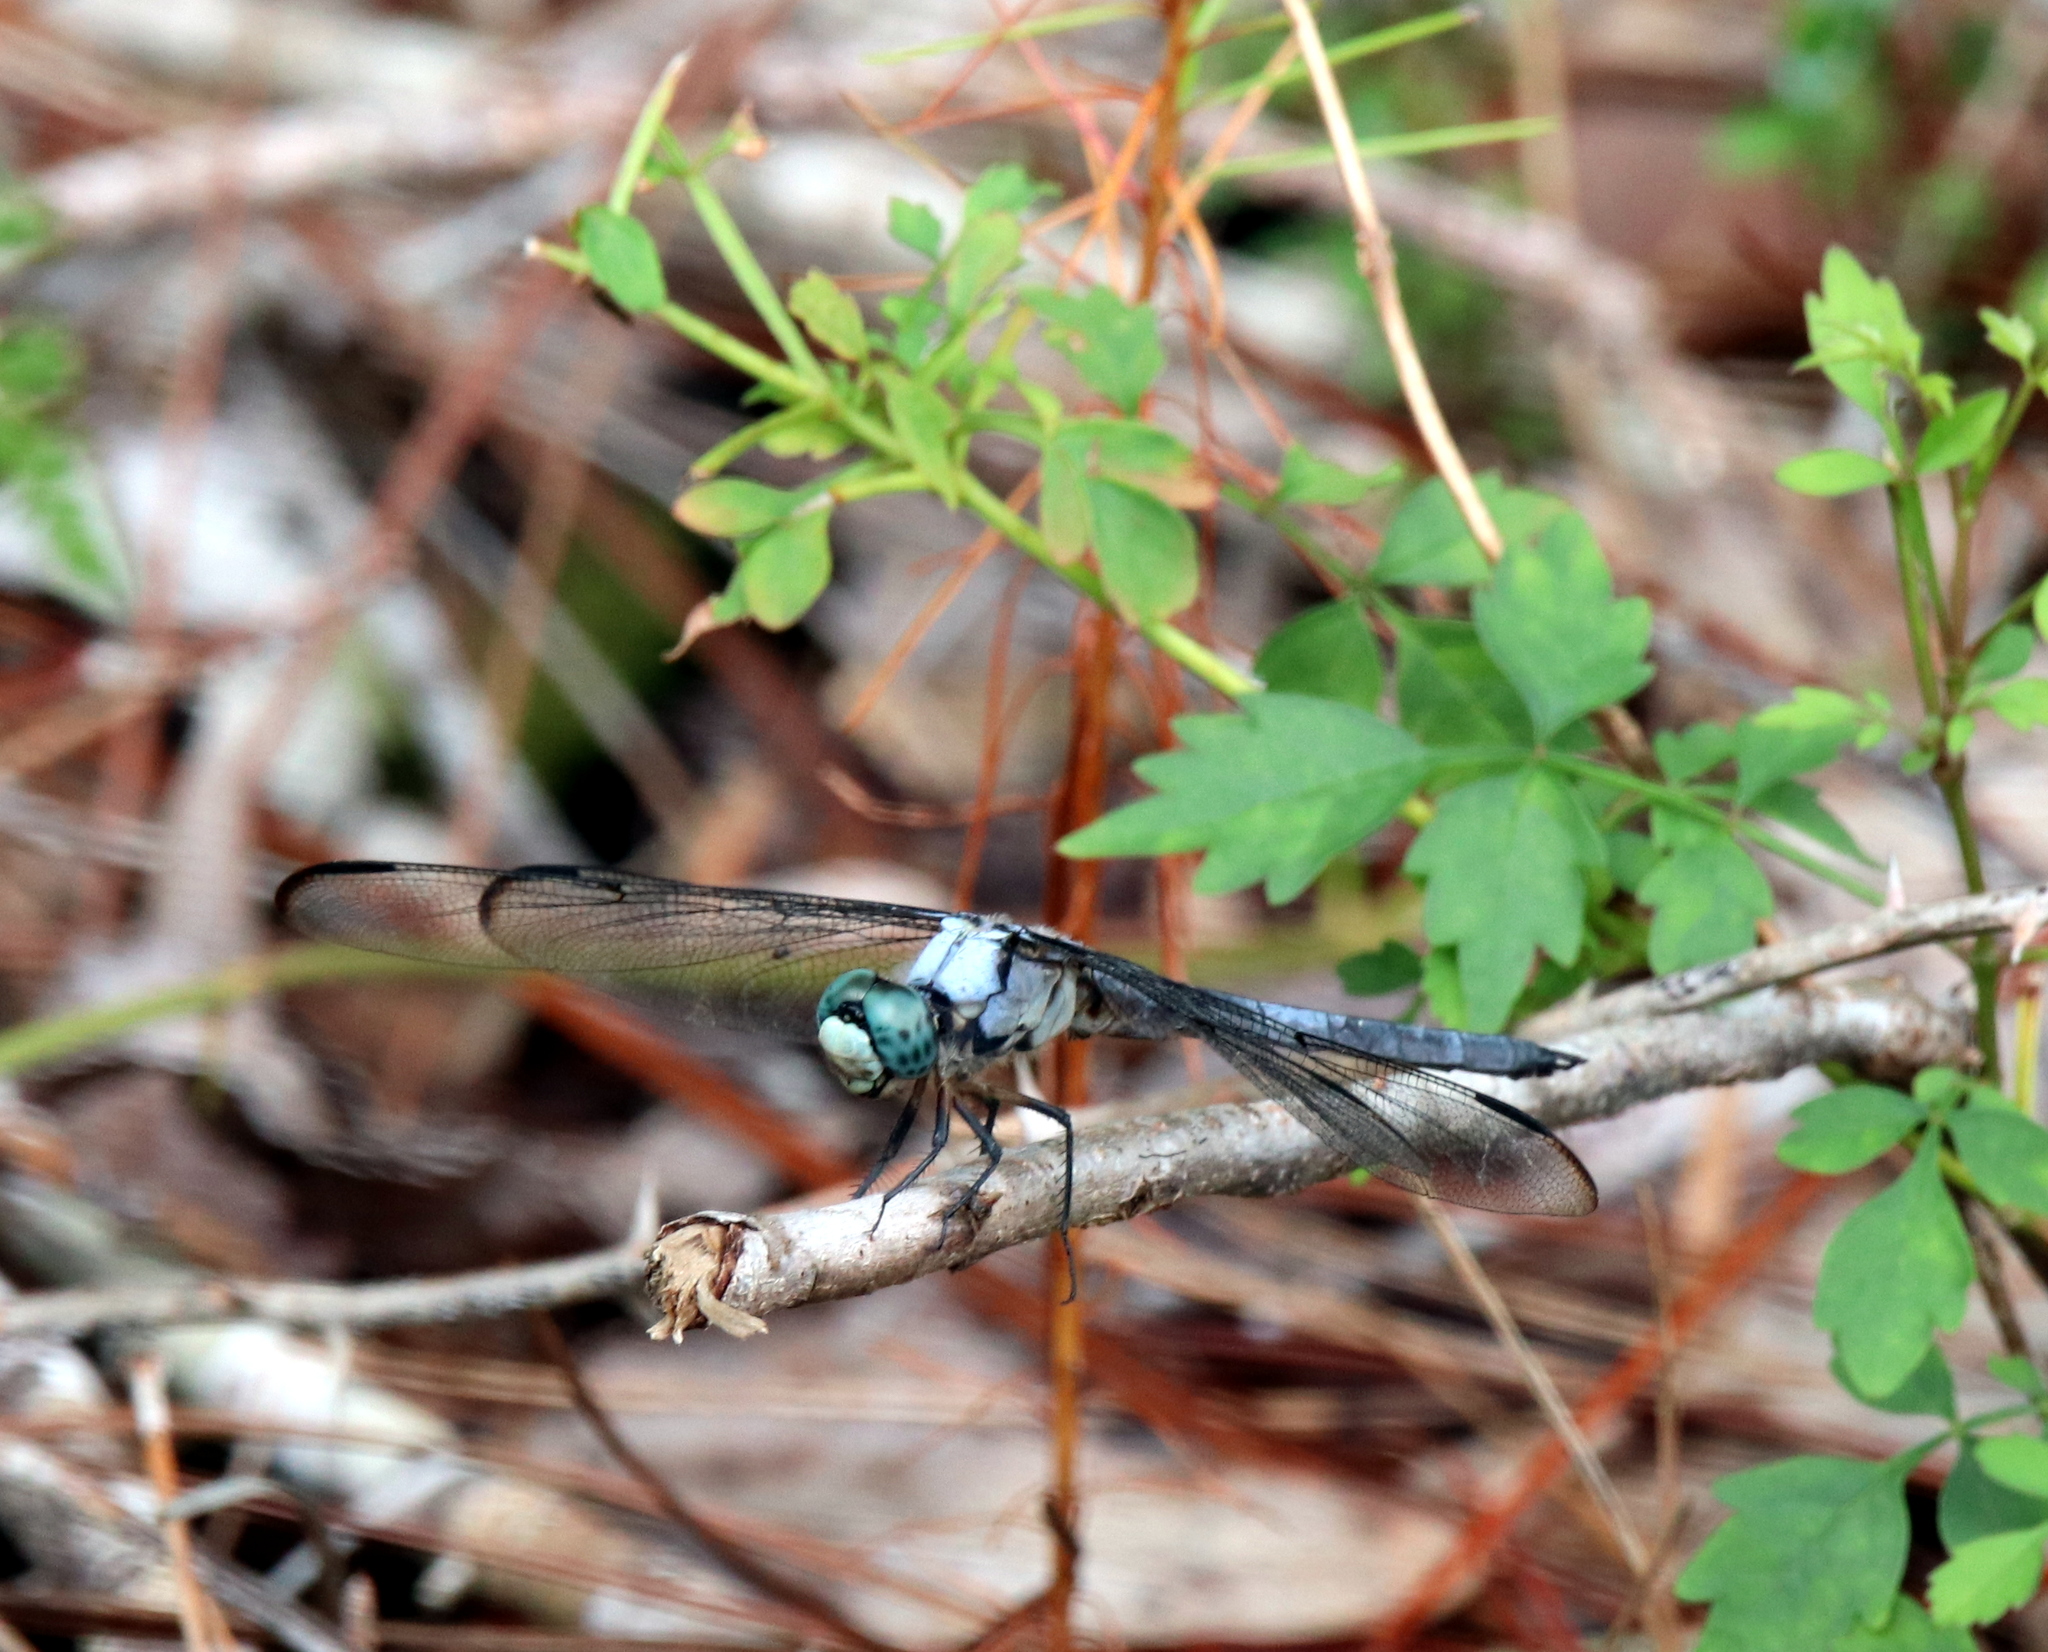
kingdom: Animalia
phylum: Arthropoda
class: Insecta
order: Odonata
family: Libellulidae
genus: Libellula
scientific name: Libellula vibrans
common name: Great blue skimmer
